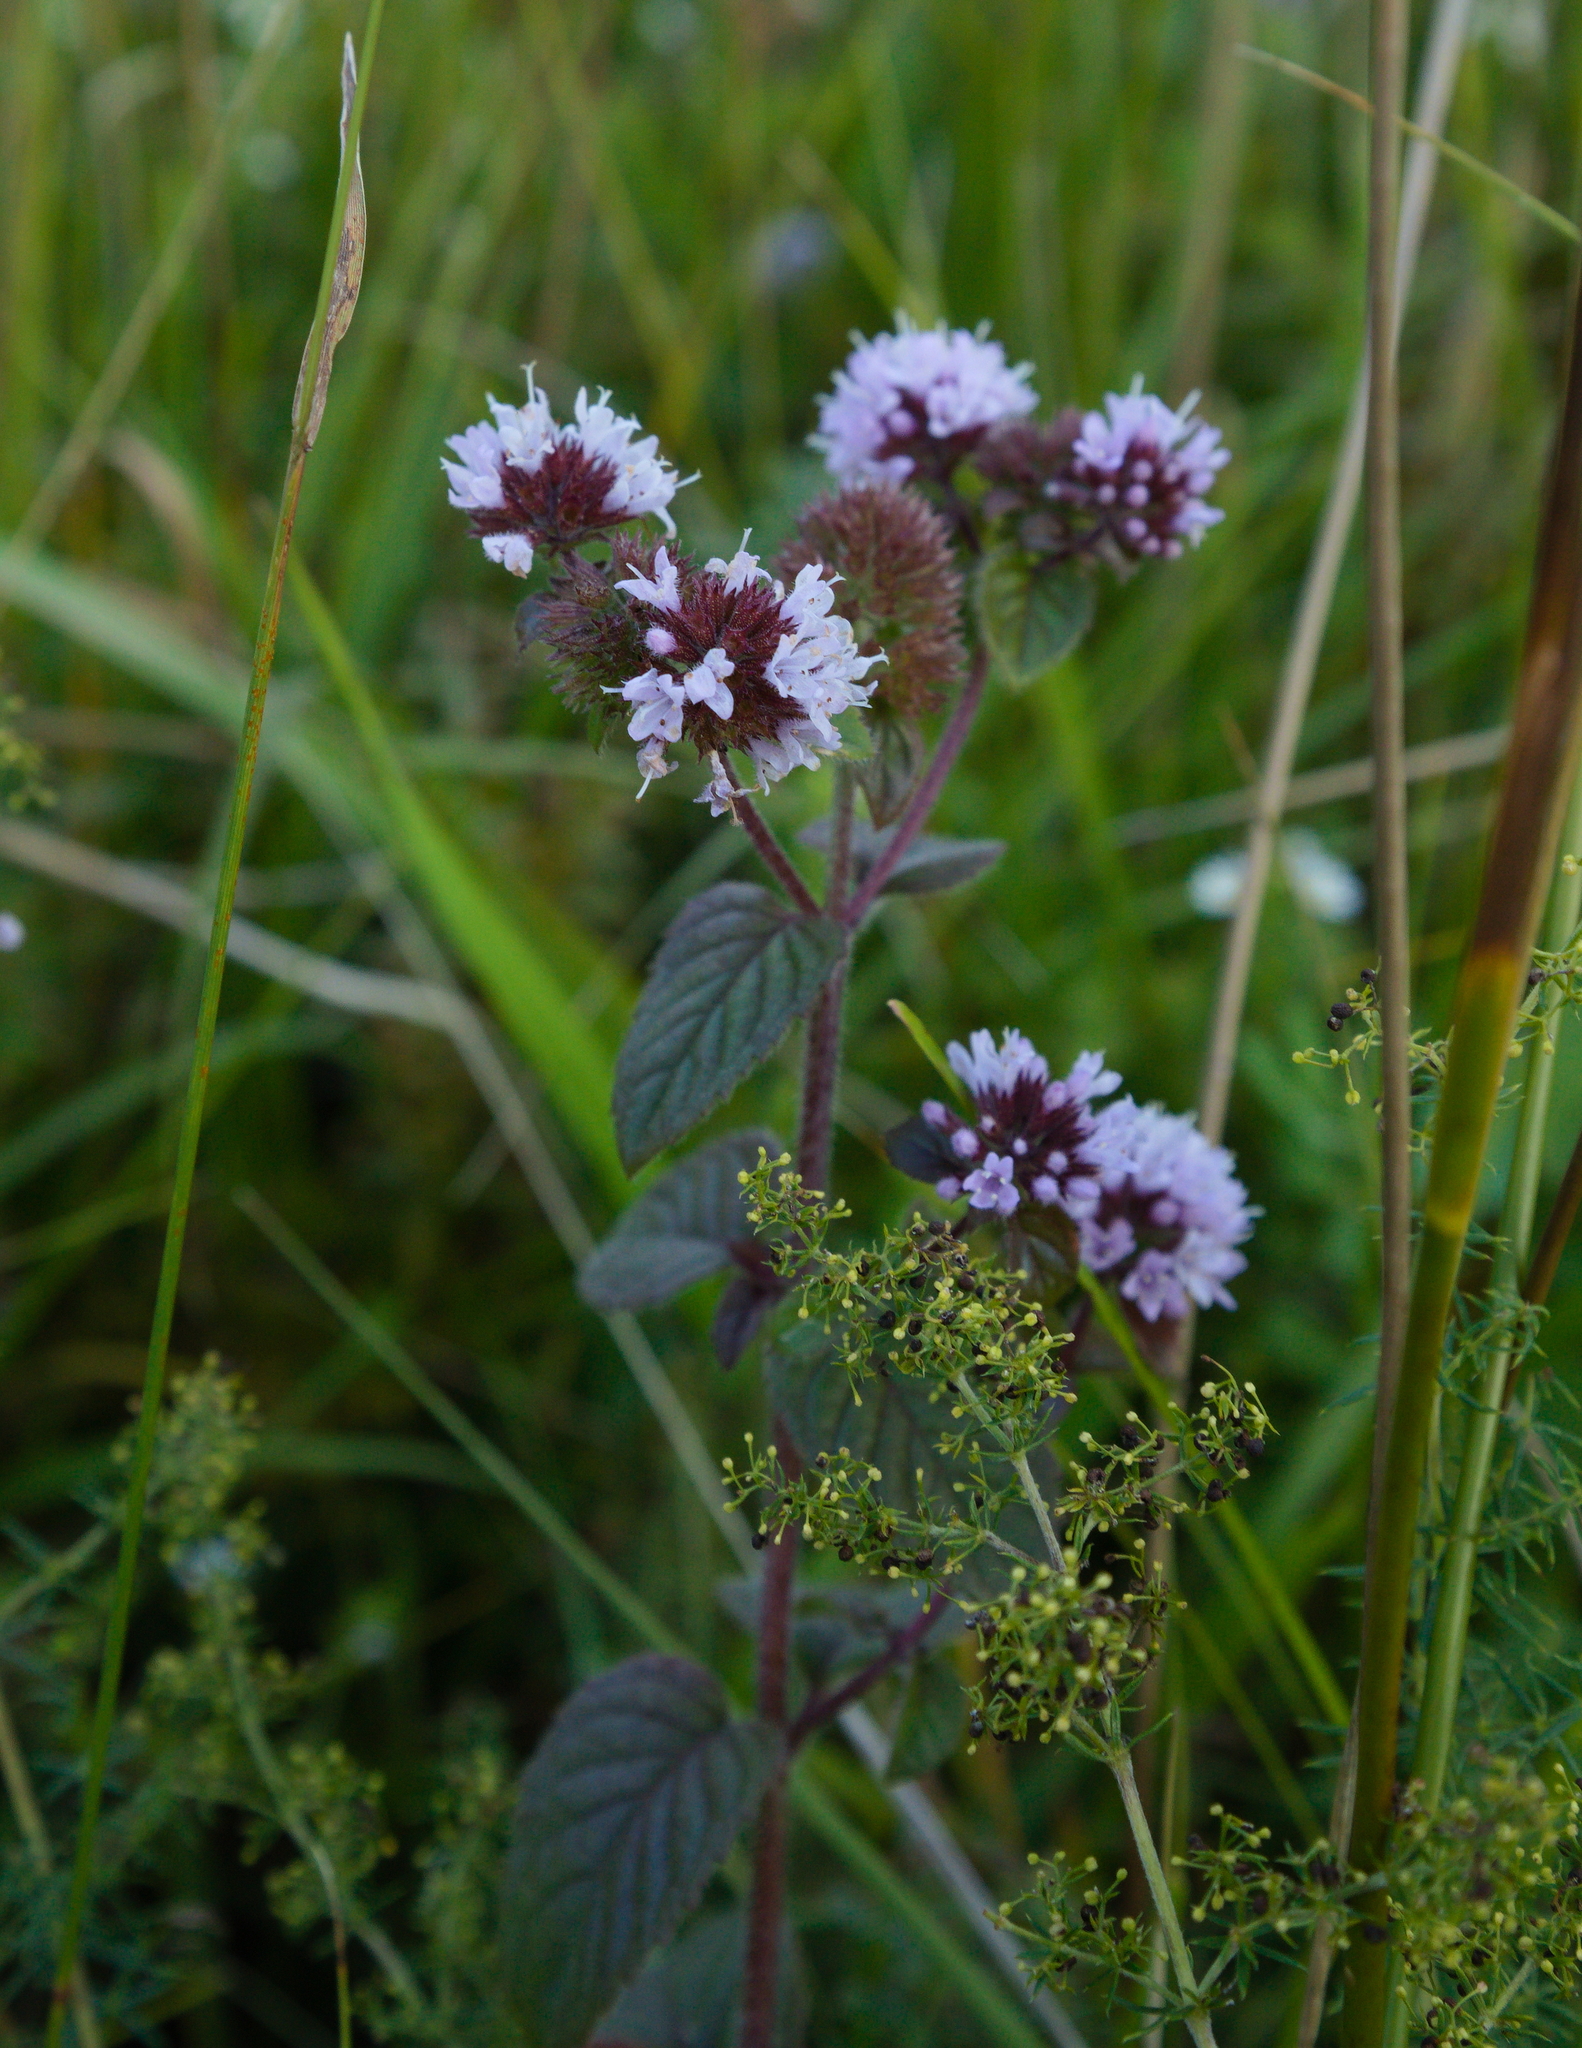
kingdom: Plantae
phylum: Tracheophyta
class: Magnoliopsida
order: Lamiales
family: Lamiaceae
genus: Mentha
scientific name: Mentha aquatica
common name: Water mint
